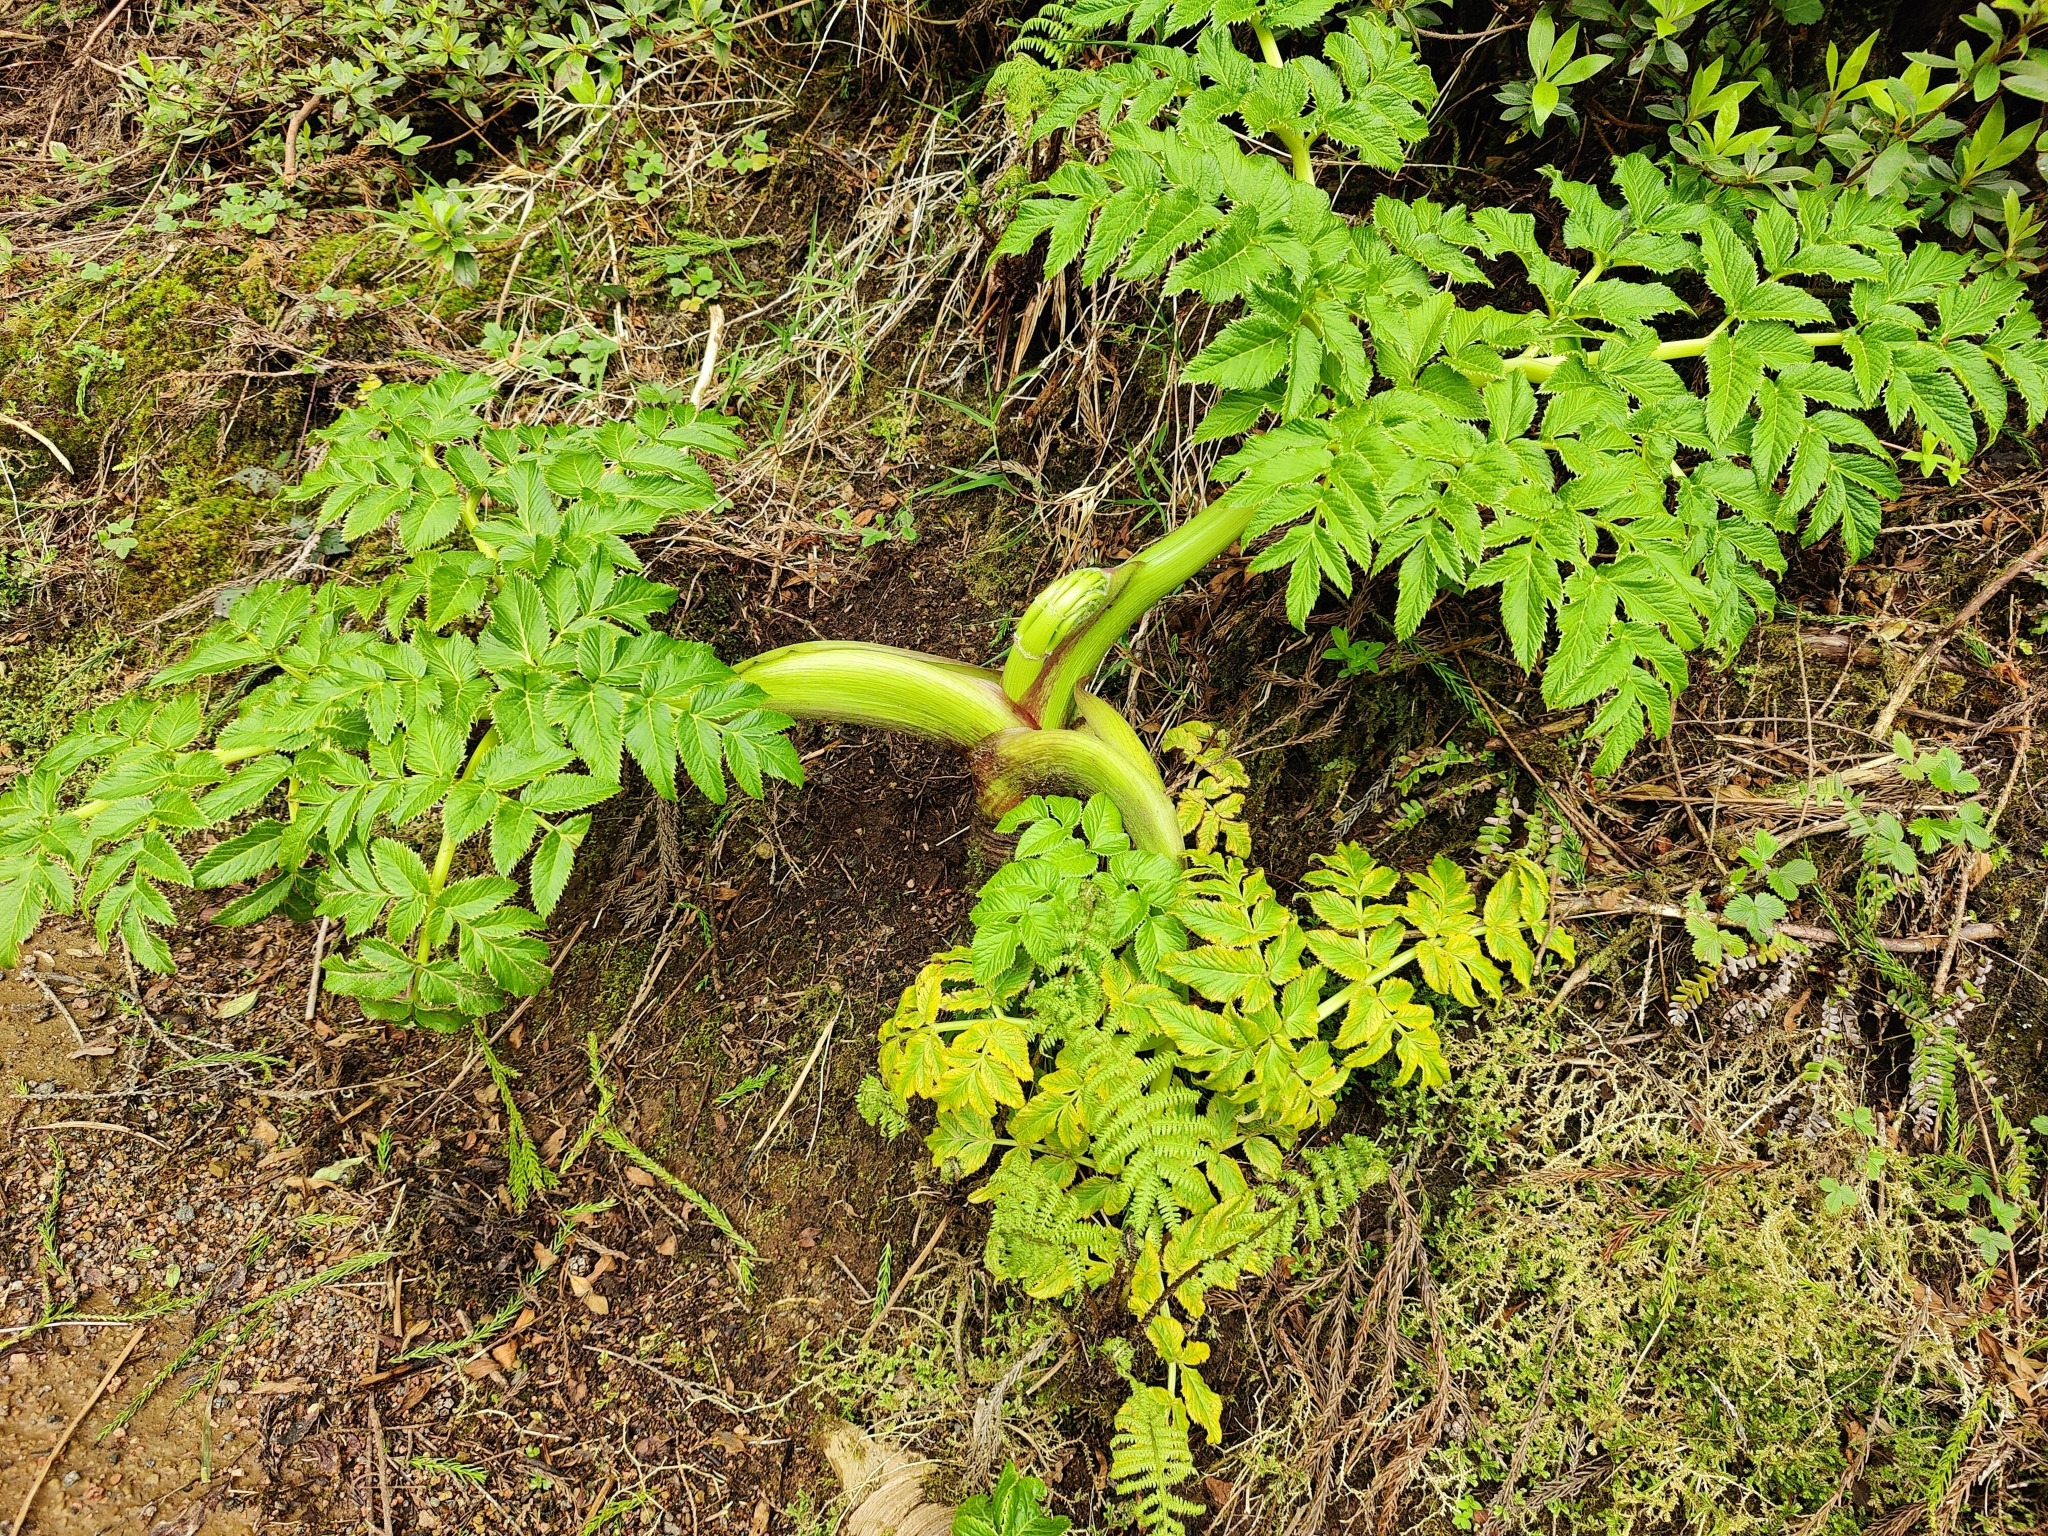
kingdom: Plantae
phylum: Tracheophyta
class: Magnoliopsida
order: Apiales
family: Apiaceae
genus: Angelica
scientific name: Angelica lignescens
